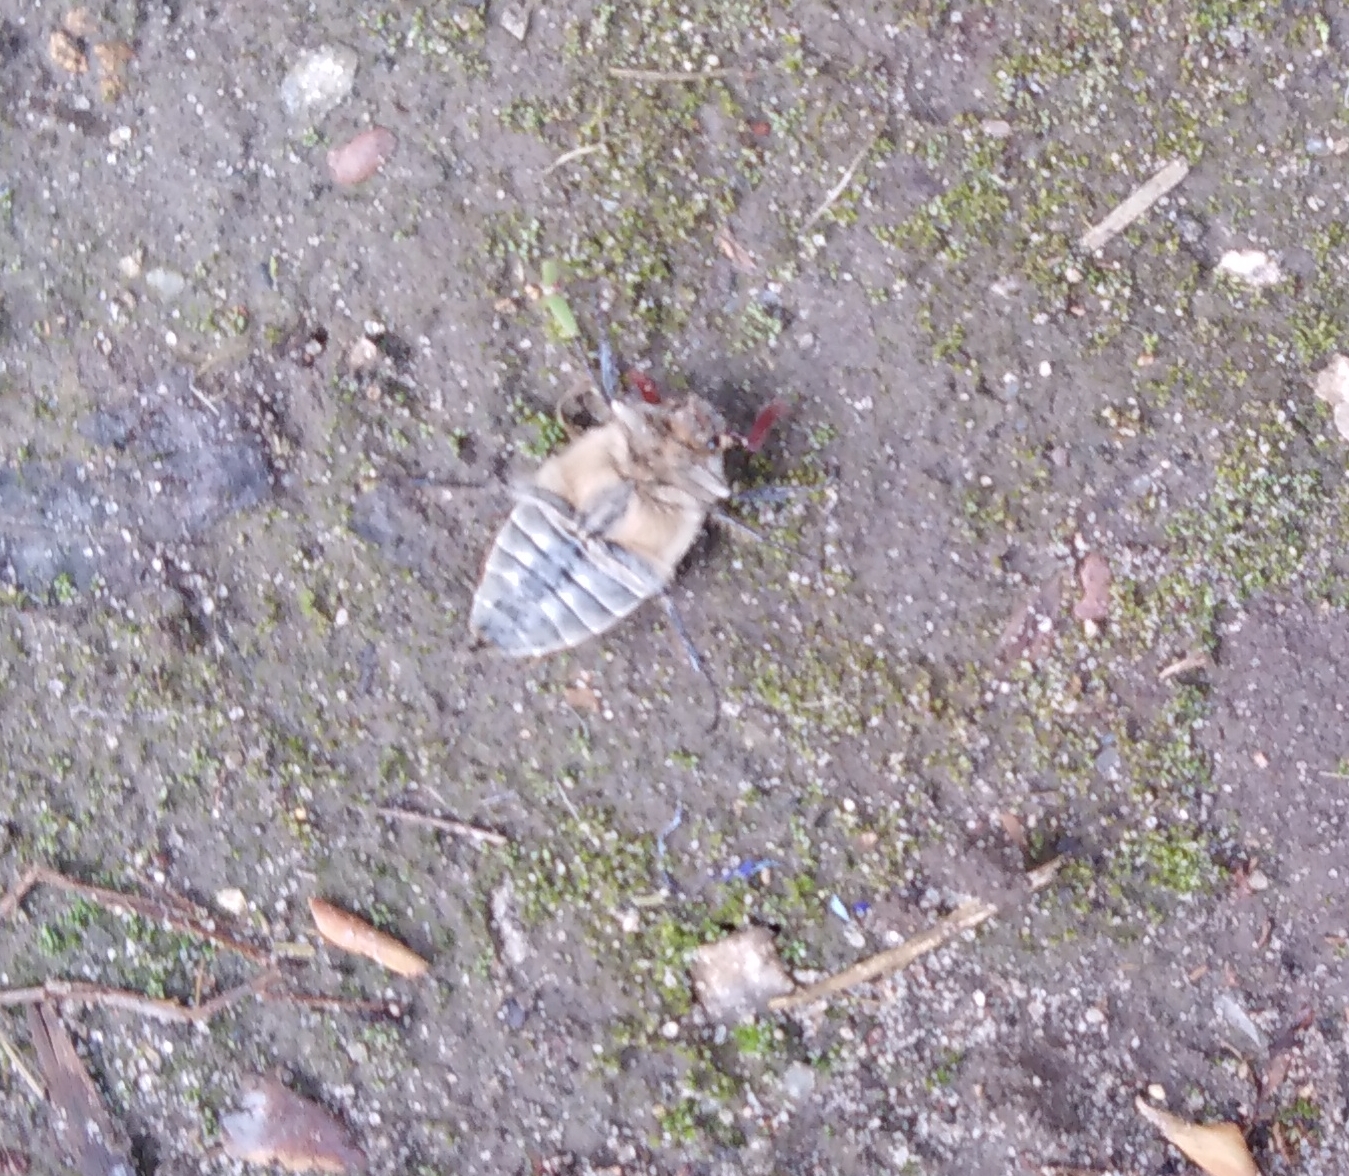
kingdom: Animalia
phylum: Arthropoda
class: Insecta
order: Coleoptera
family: Scarabaeidae
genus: Melolontha
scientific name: Melolontha hippocastani
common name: Chestnut cockchafer
